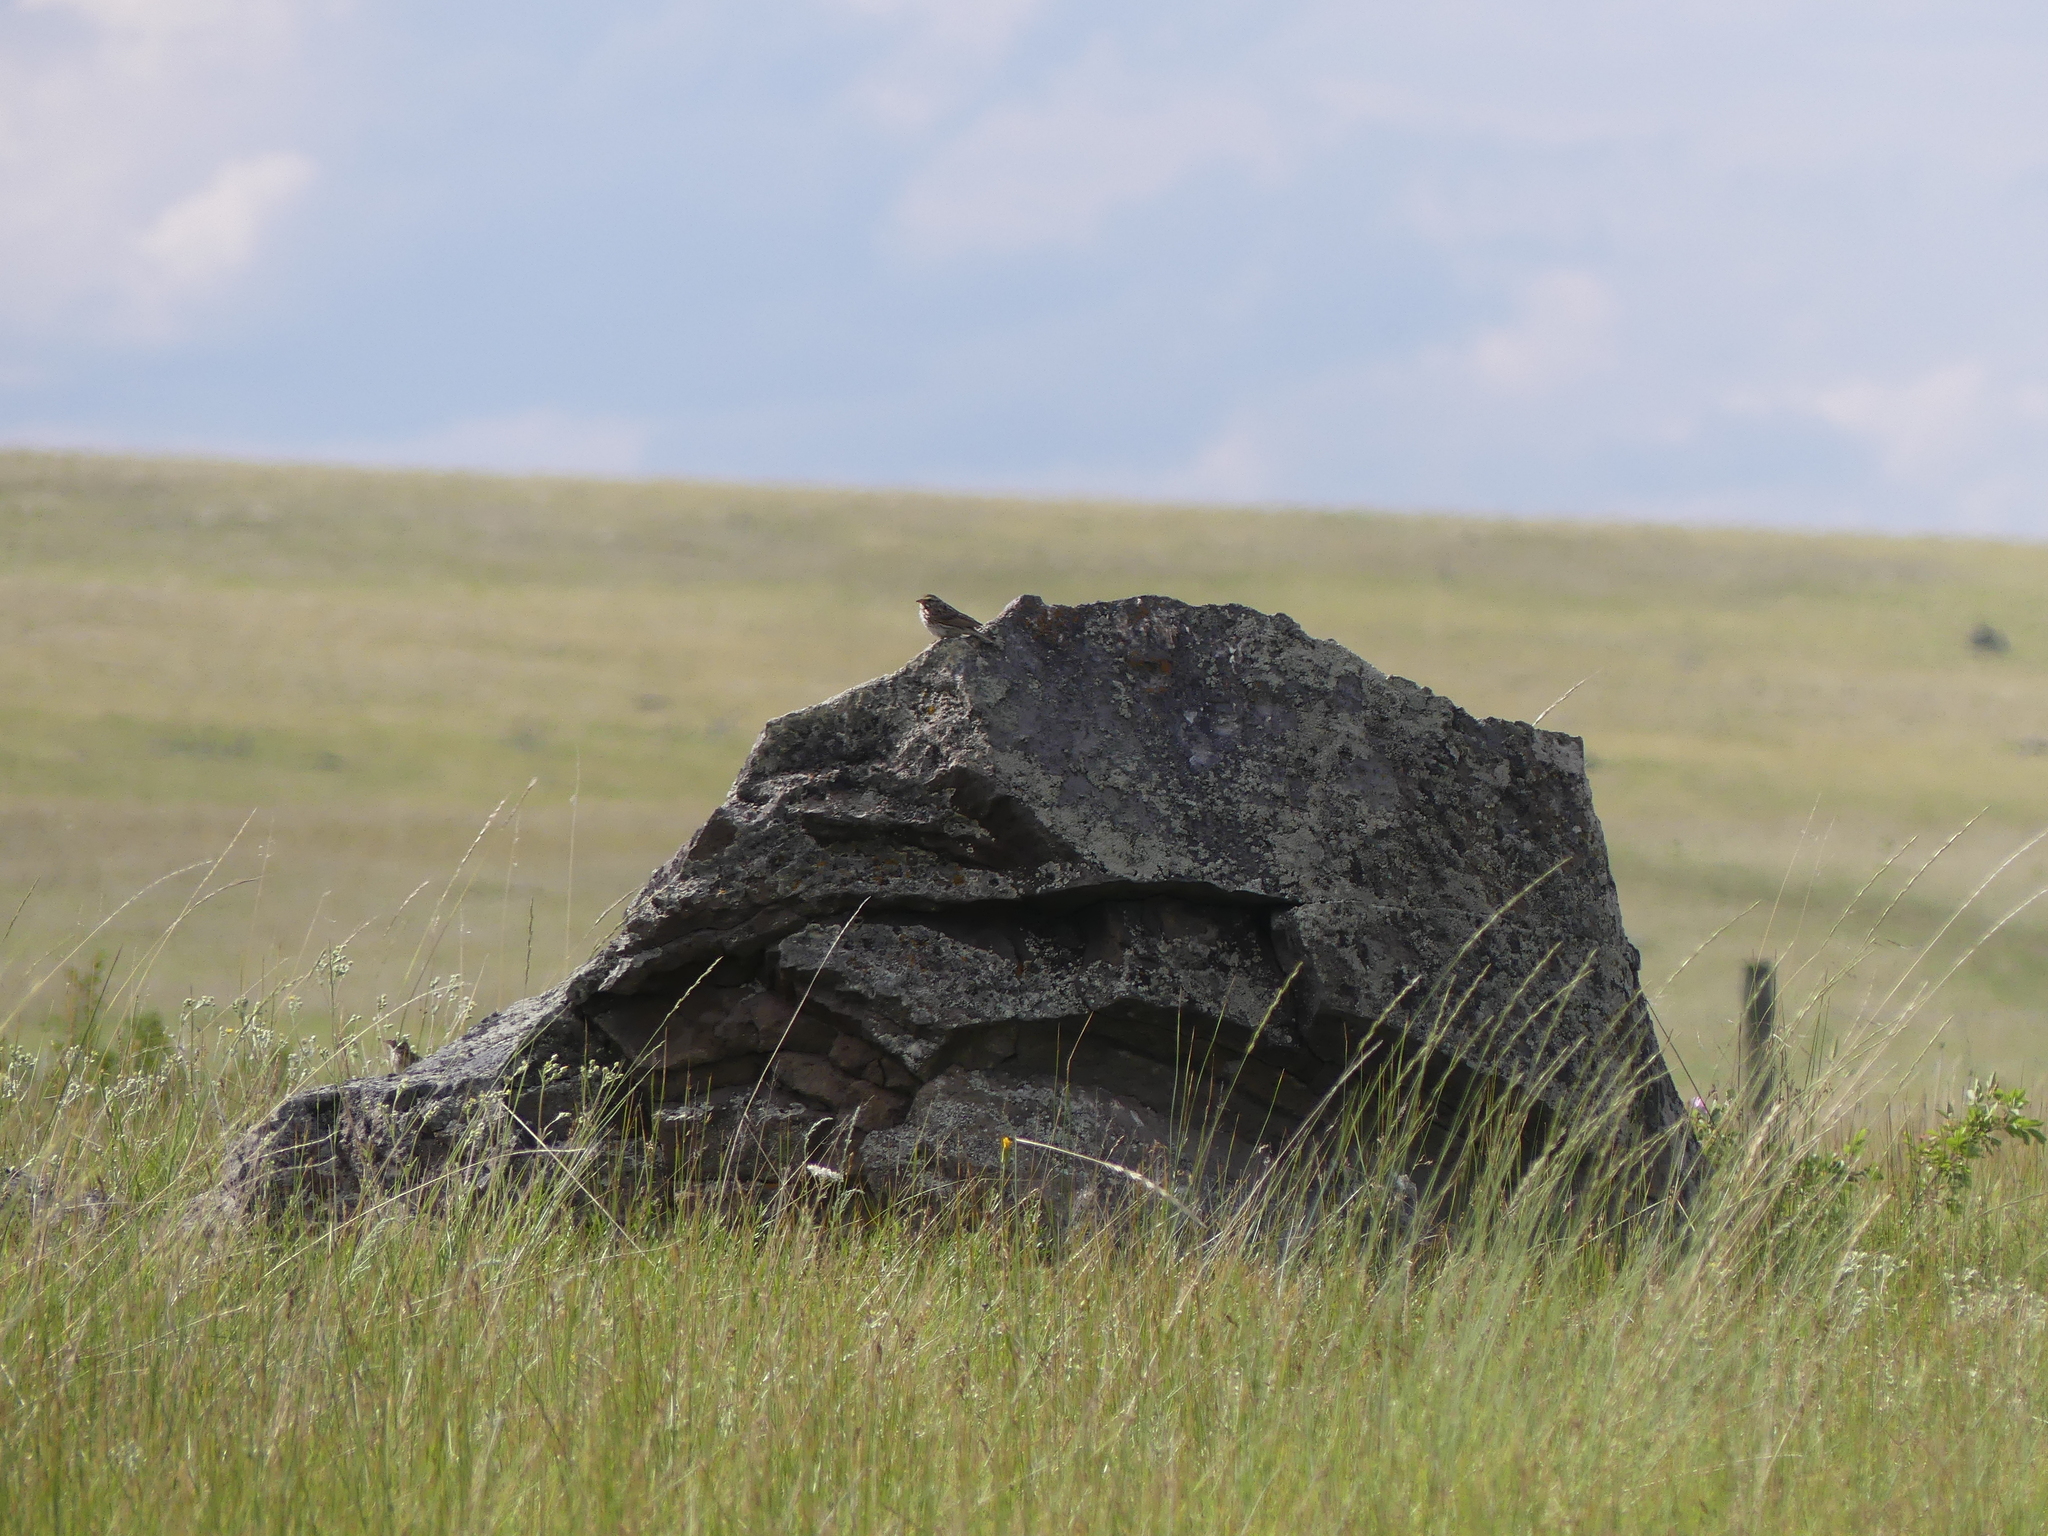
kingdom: Animalia
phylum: Chordata
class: Aves
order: Passeriformes
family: Passerellidae
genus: Passerculus
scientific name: Passerculus sandwichensis
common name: Savannah sparrow
